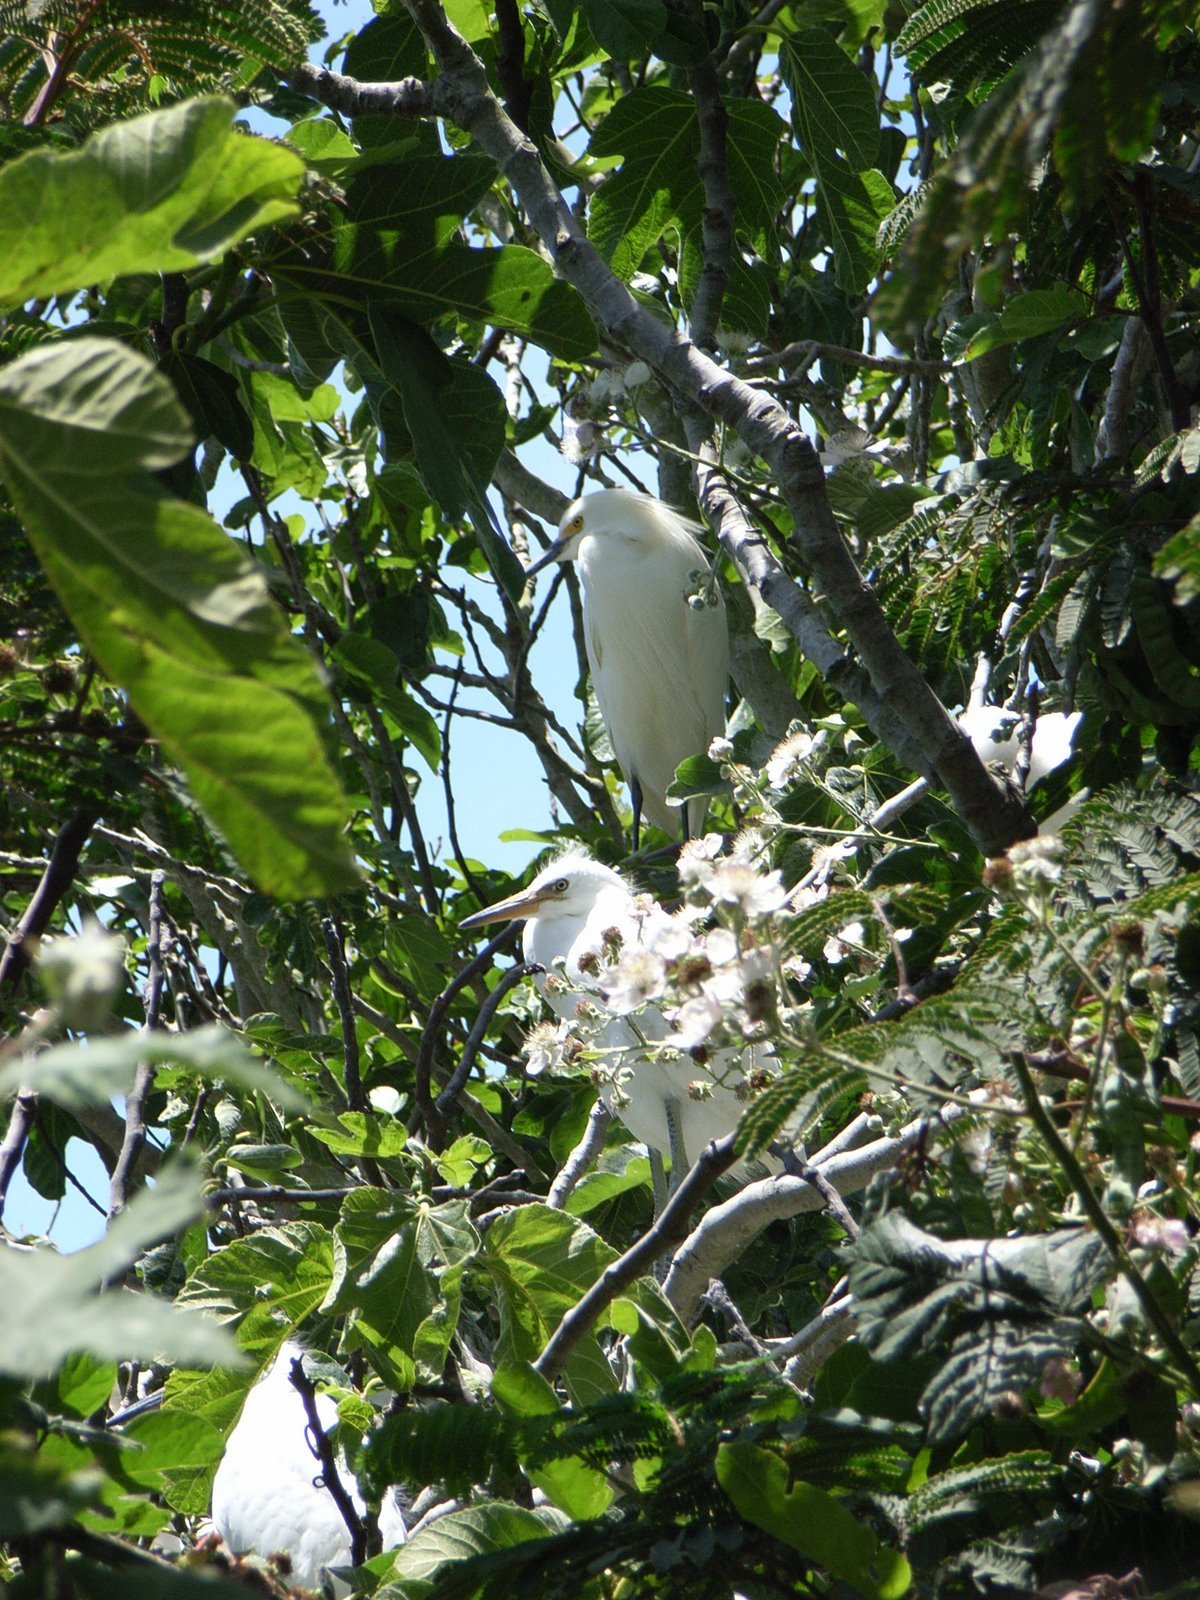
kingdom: Animalia
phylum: Chordata
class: Aves
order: Pelecaniformes
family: Ardeidae
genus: Egretta
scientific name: Egretta thula
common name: Snowy egret
